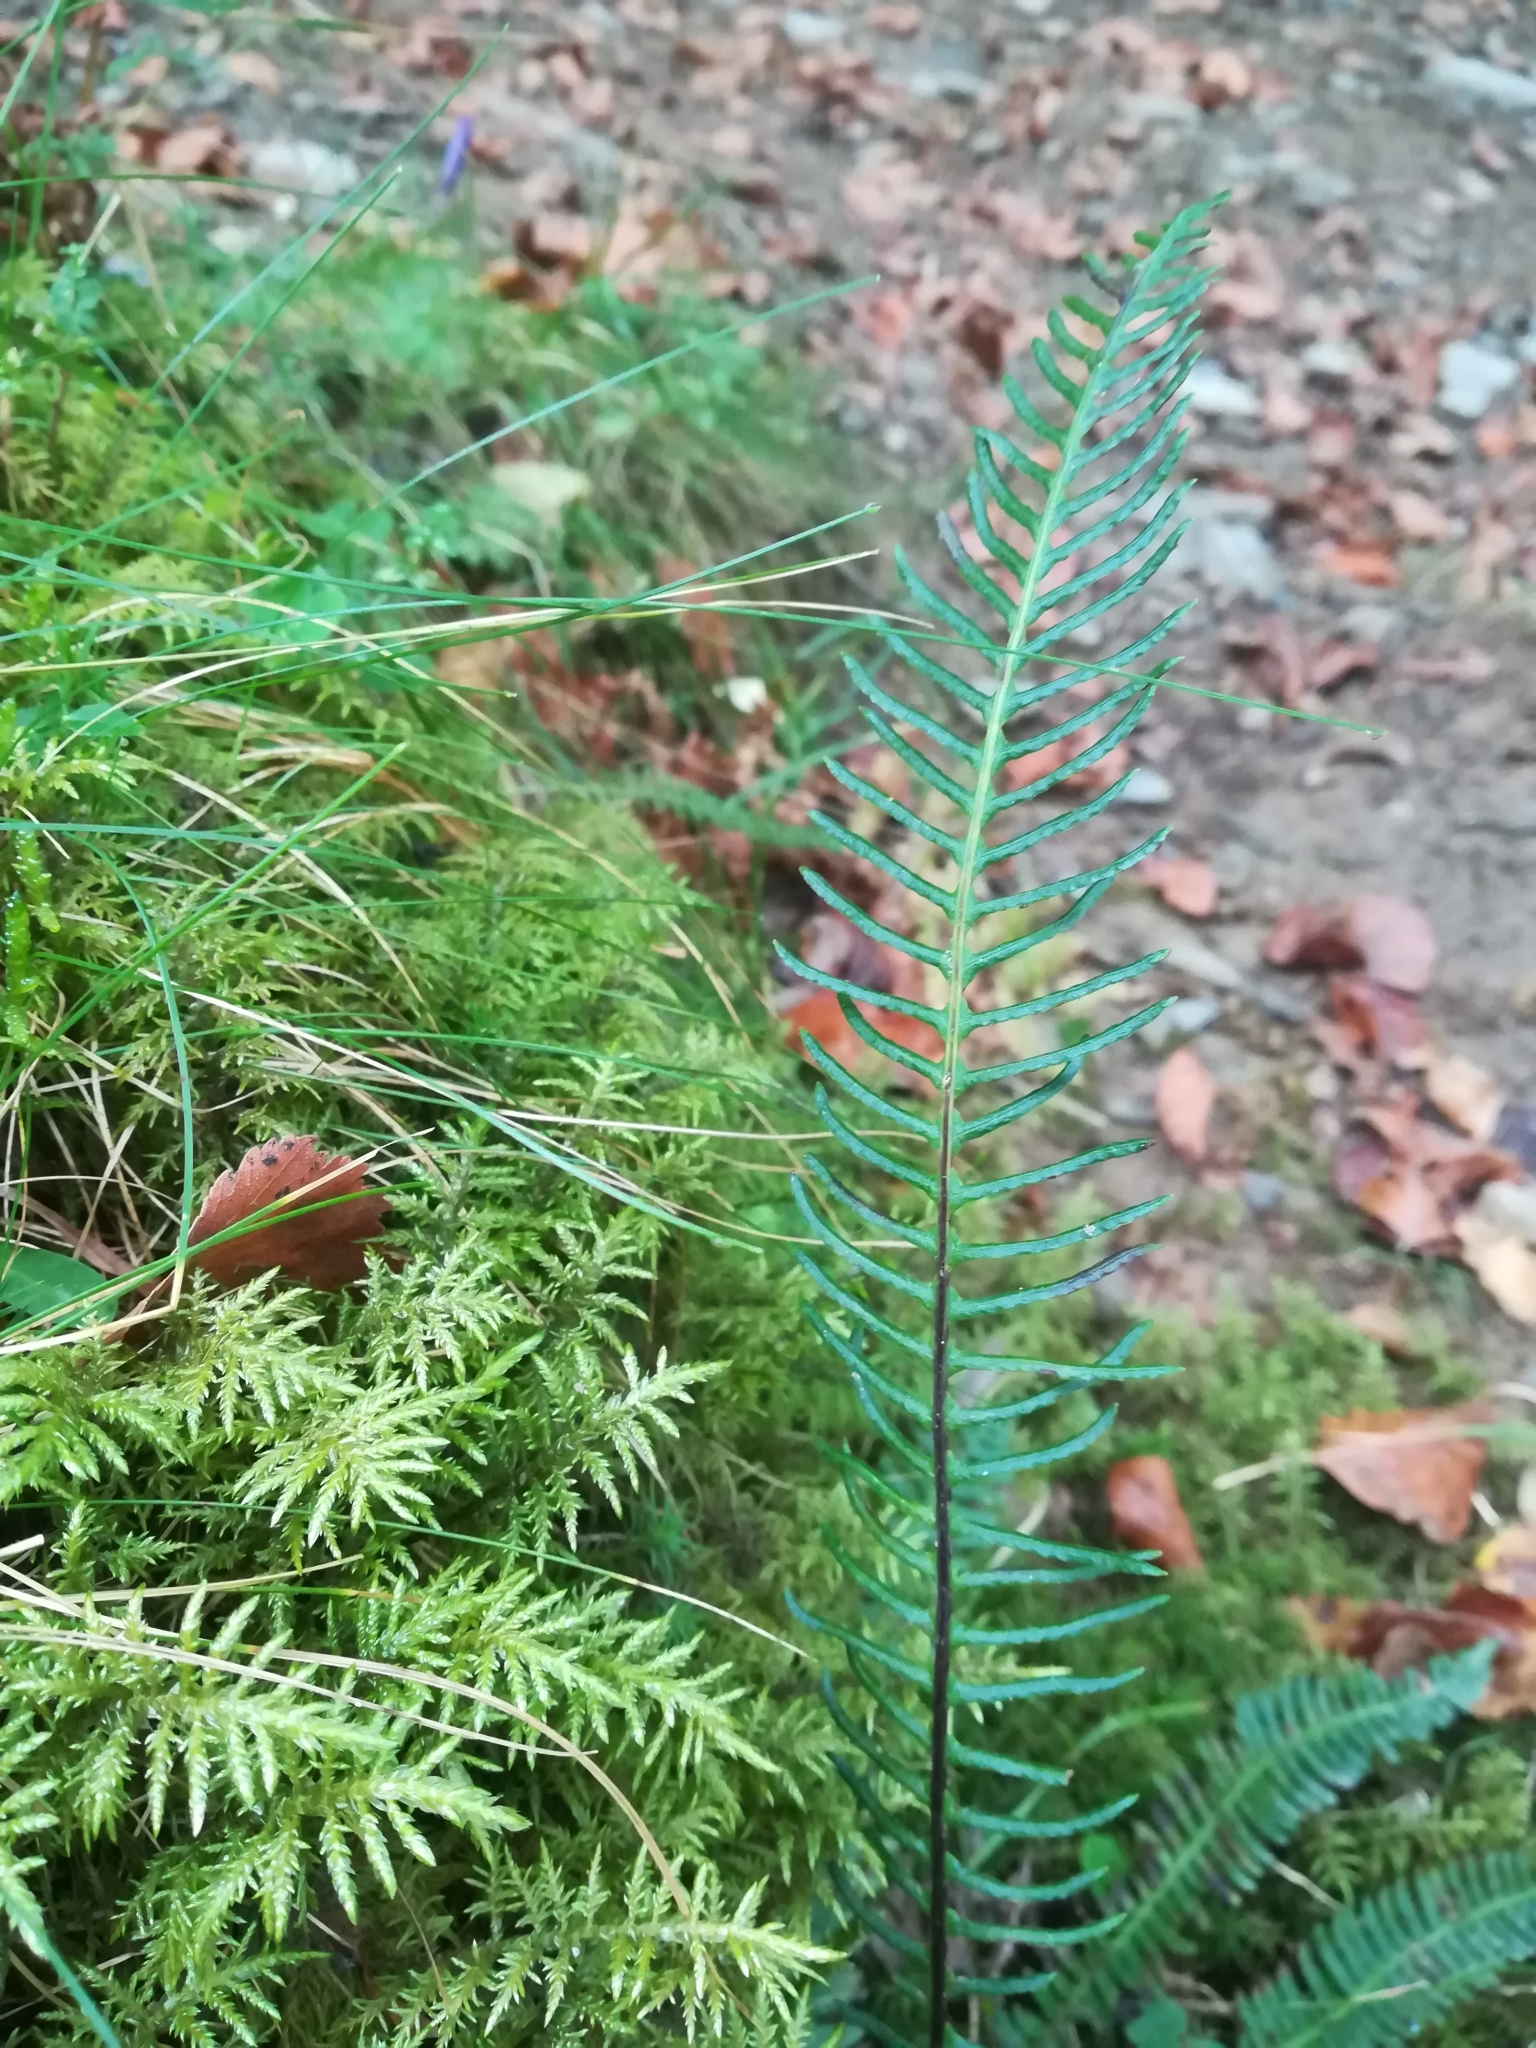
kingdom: Plantae
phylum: Tracheophyta
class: Polypodiopsida
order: Polypodiales
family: Blechnaceae
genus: Struthiopteris
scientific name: Struthiopteris spicant
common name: Deer fern
